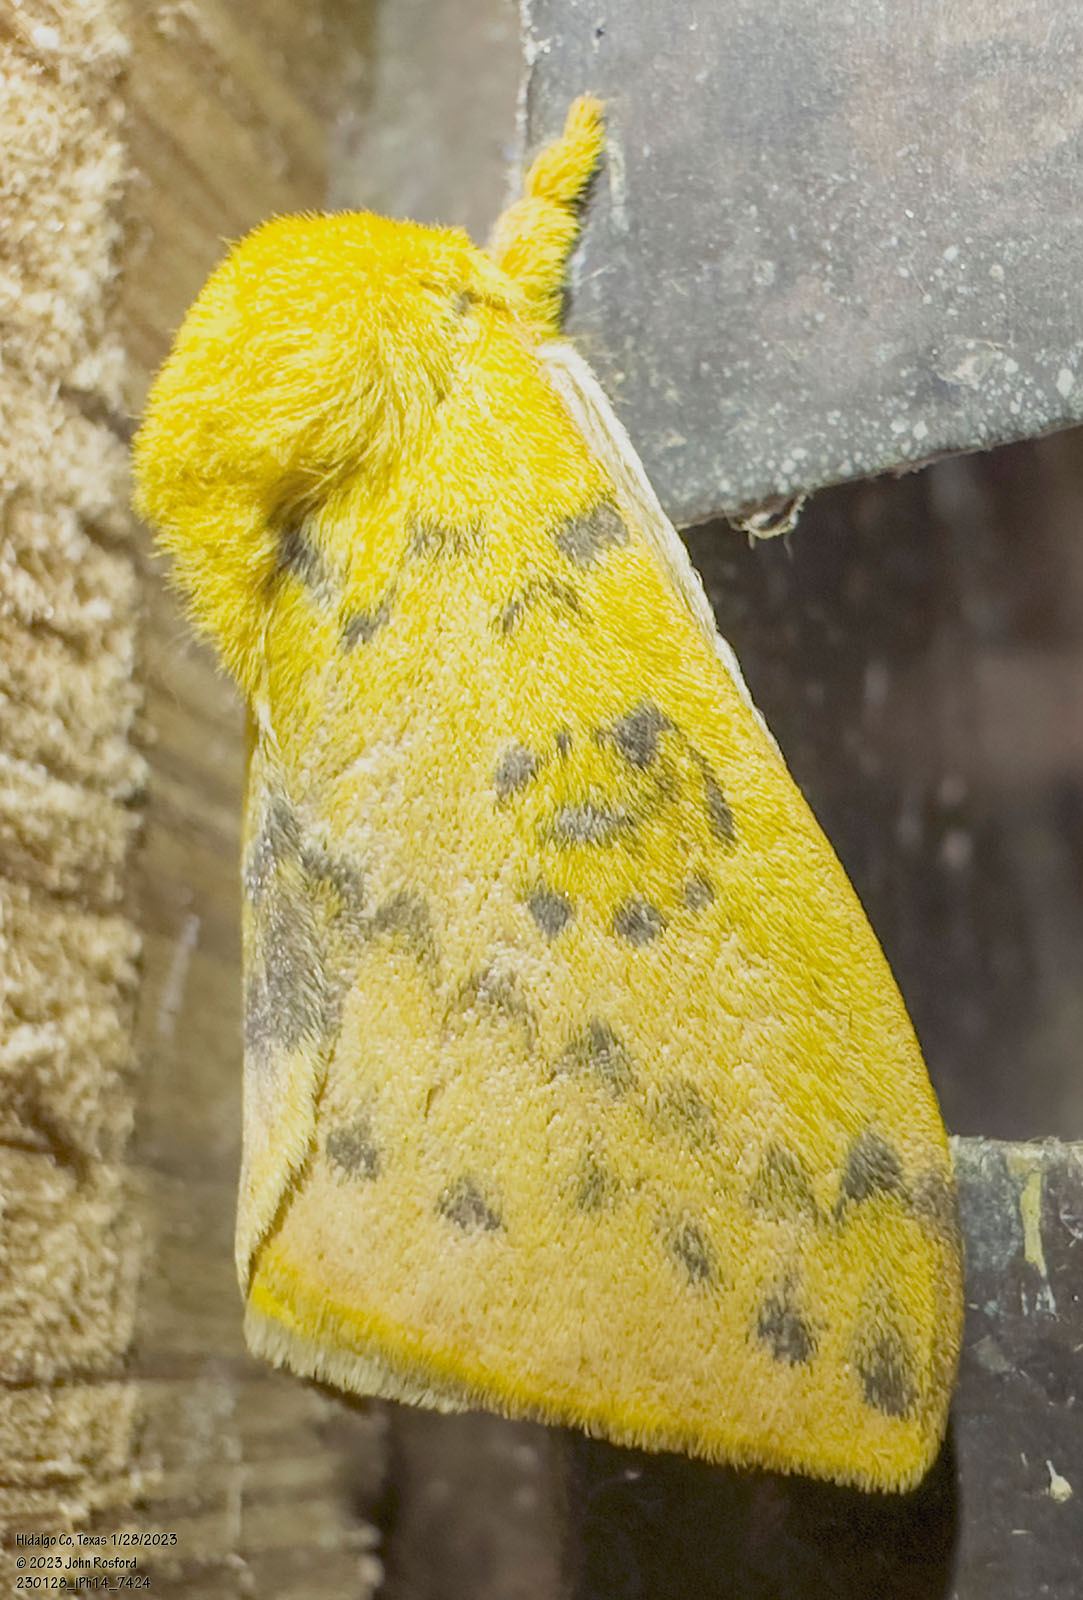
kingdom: Animalia
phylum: Arthropoda
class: Insecta
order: Lepidoptera
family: Saturniidae
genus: Automeris
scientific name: Automeris io
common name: Io moth
